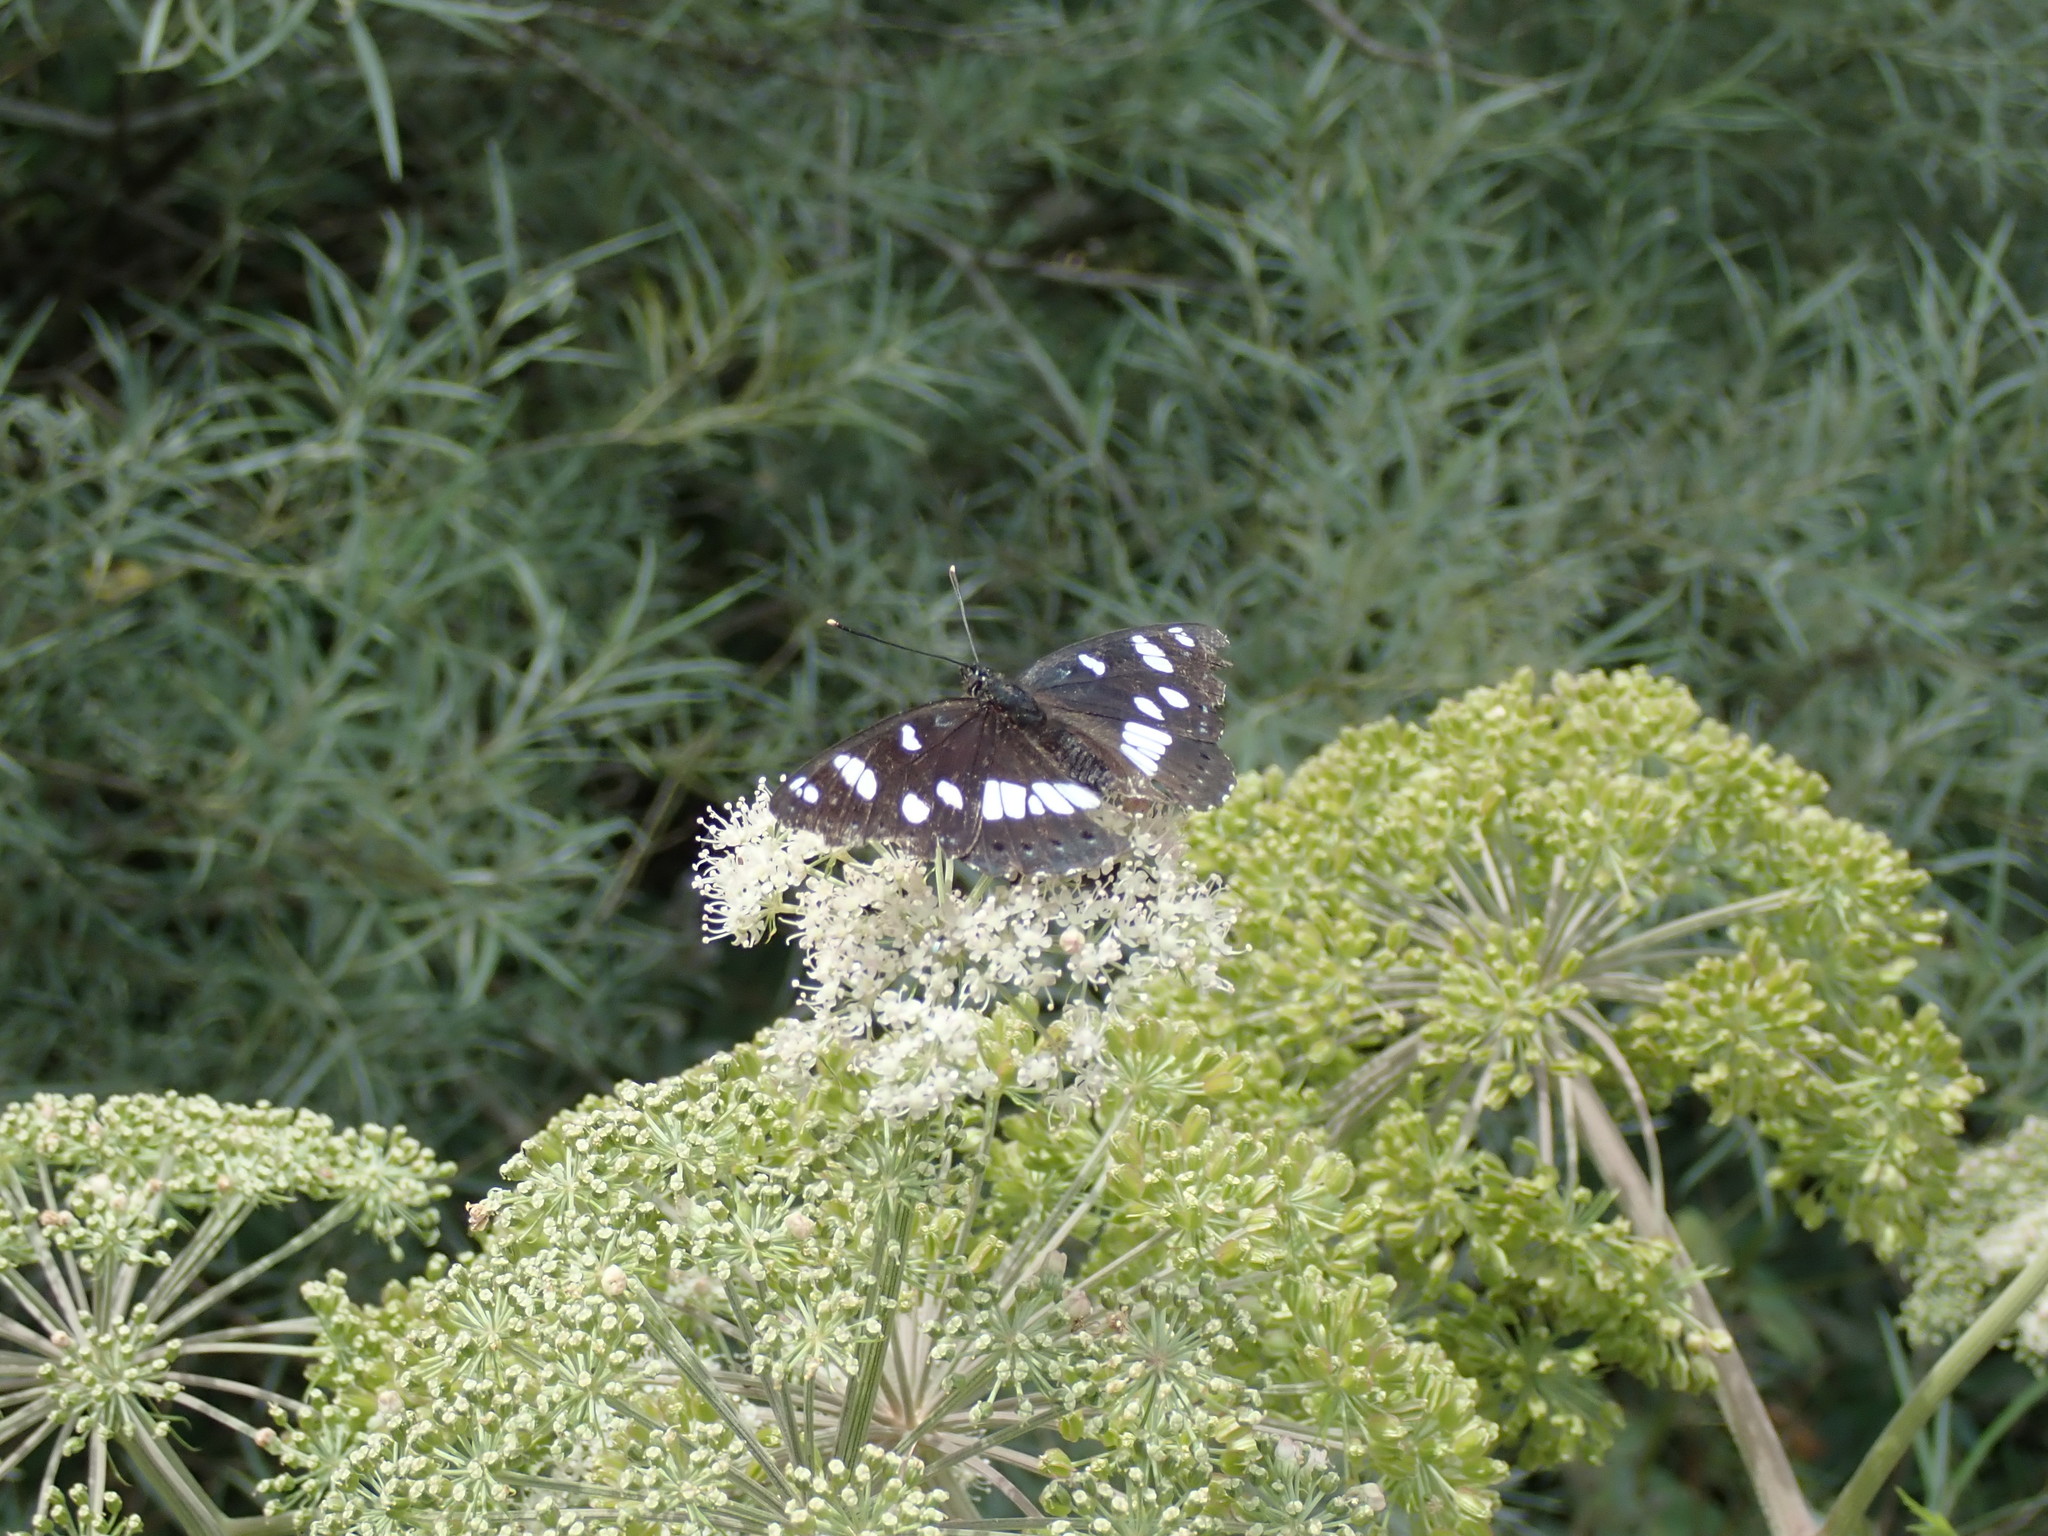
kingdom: Animalia
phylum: Arthropoda
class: Insecta
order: Lepidoptera
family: Nymphalidae
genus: Limenitis
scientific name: Limenitis reducta
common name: Southern white admiral
